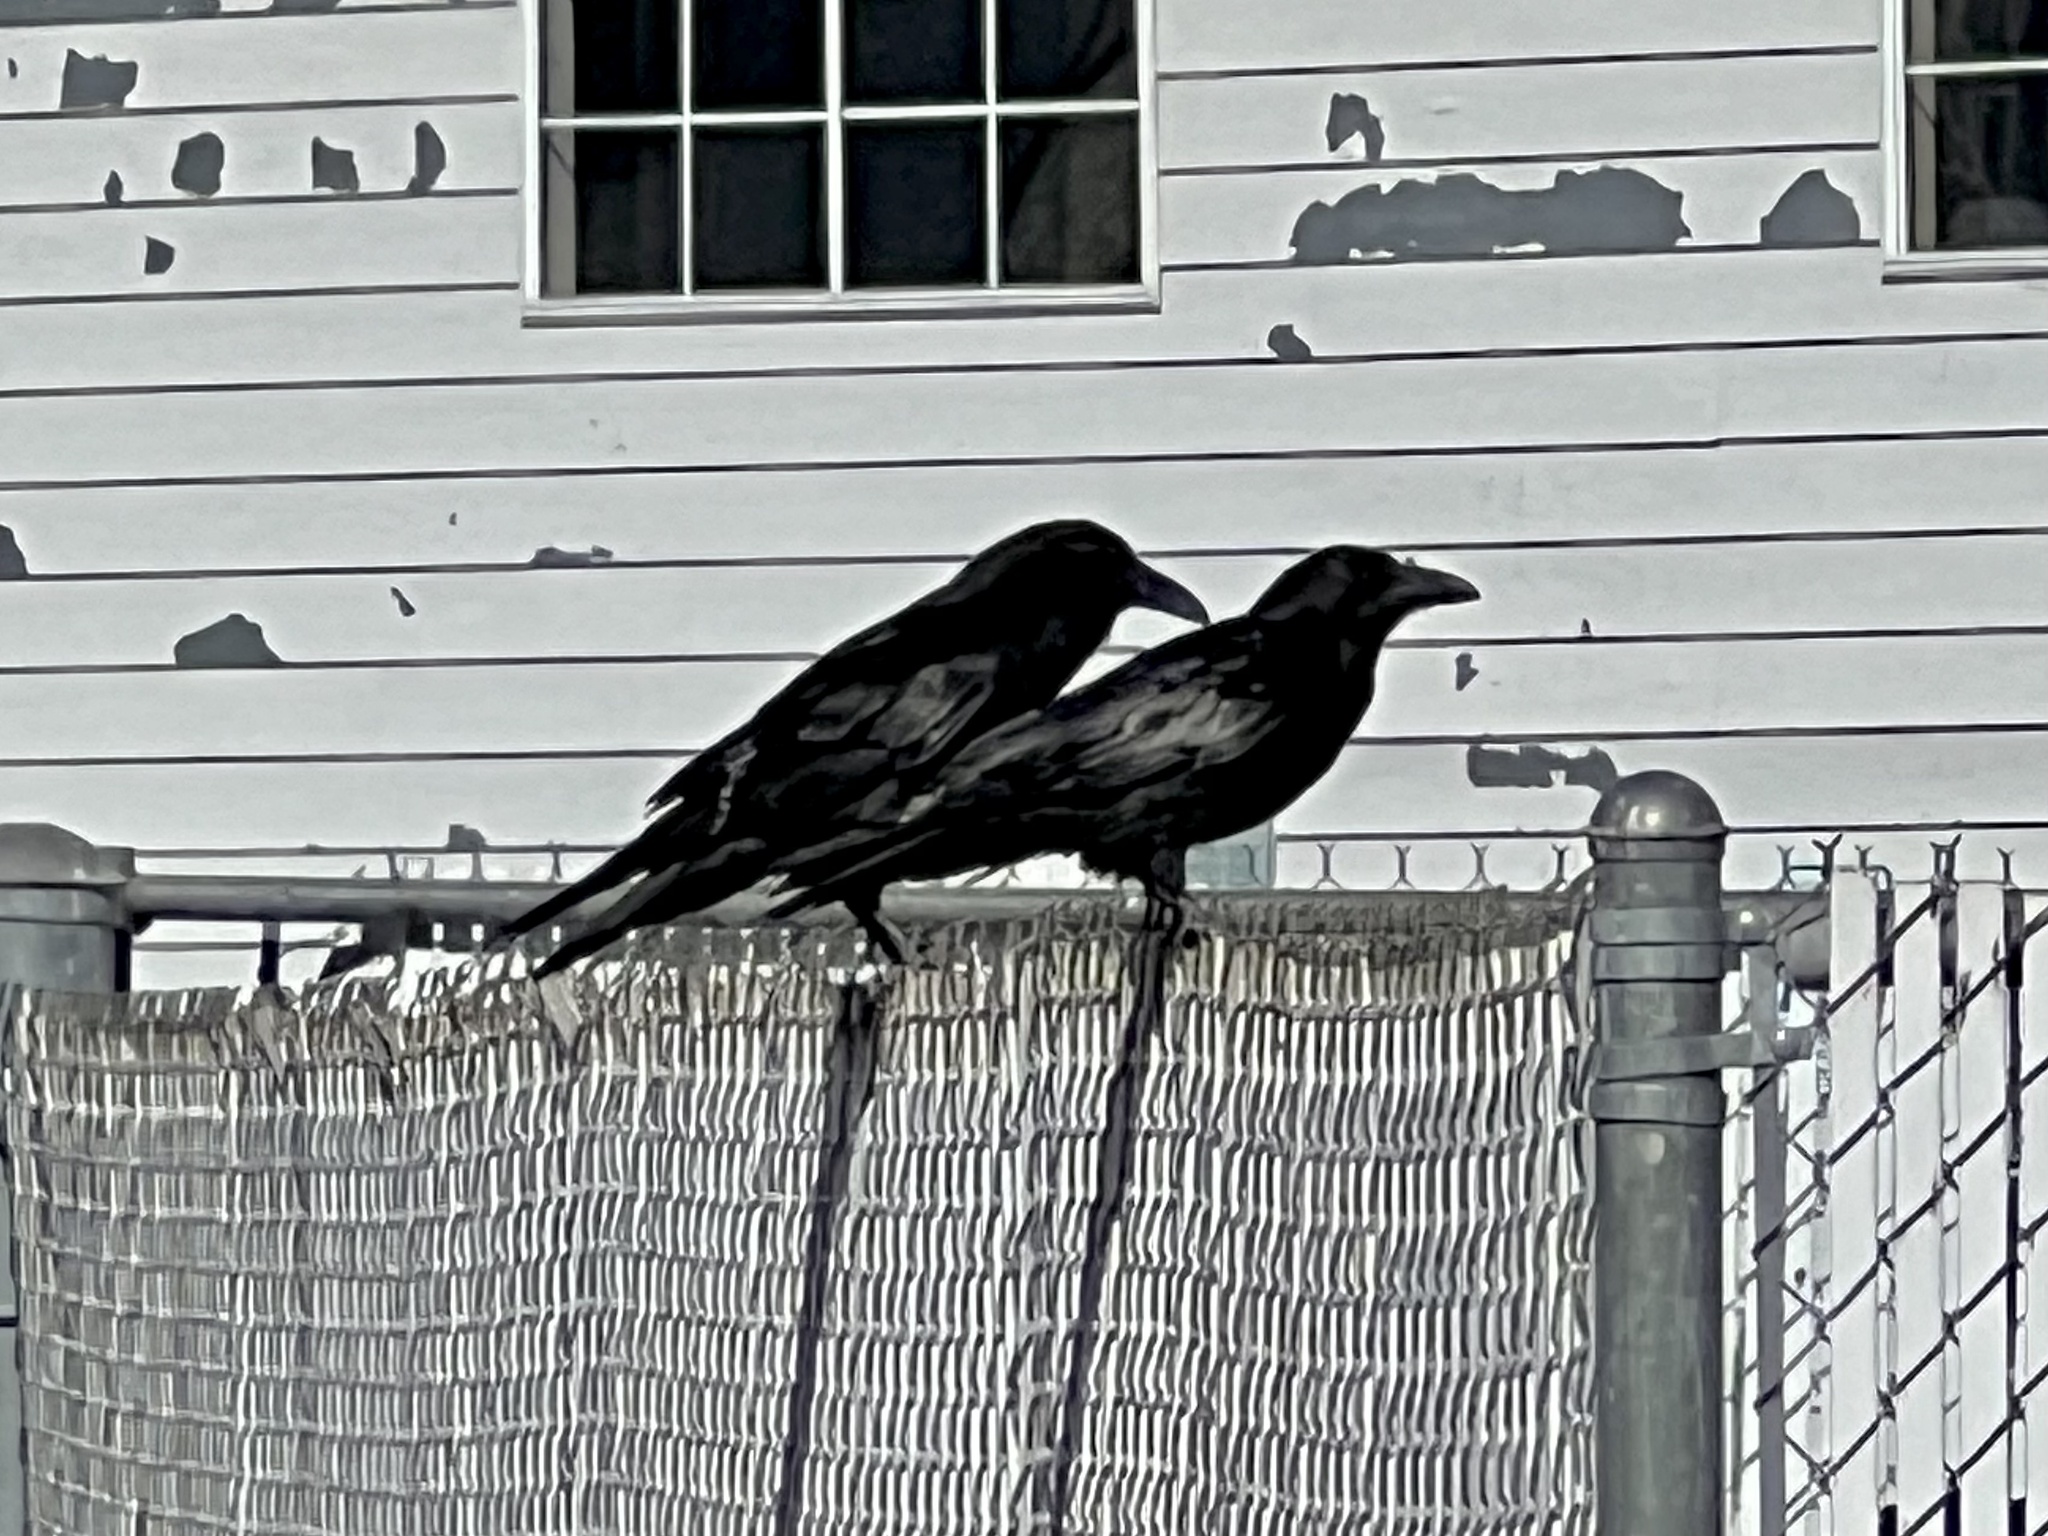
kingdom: Animalia
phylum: Chordata
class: Aves
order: Passeriformes
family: Corvidae
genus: Corvus
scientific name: Corvus corax
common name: Common raven
